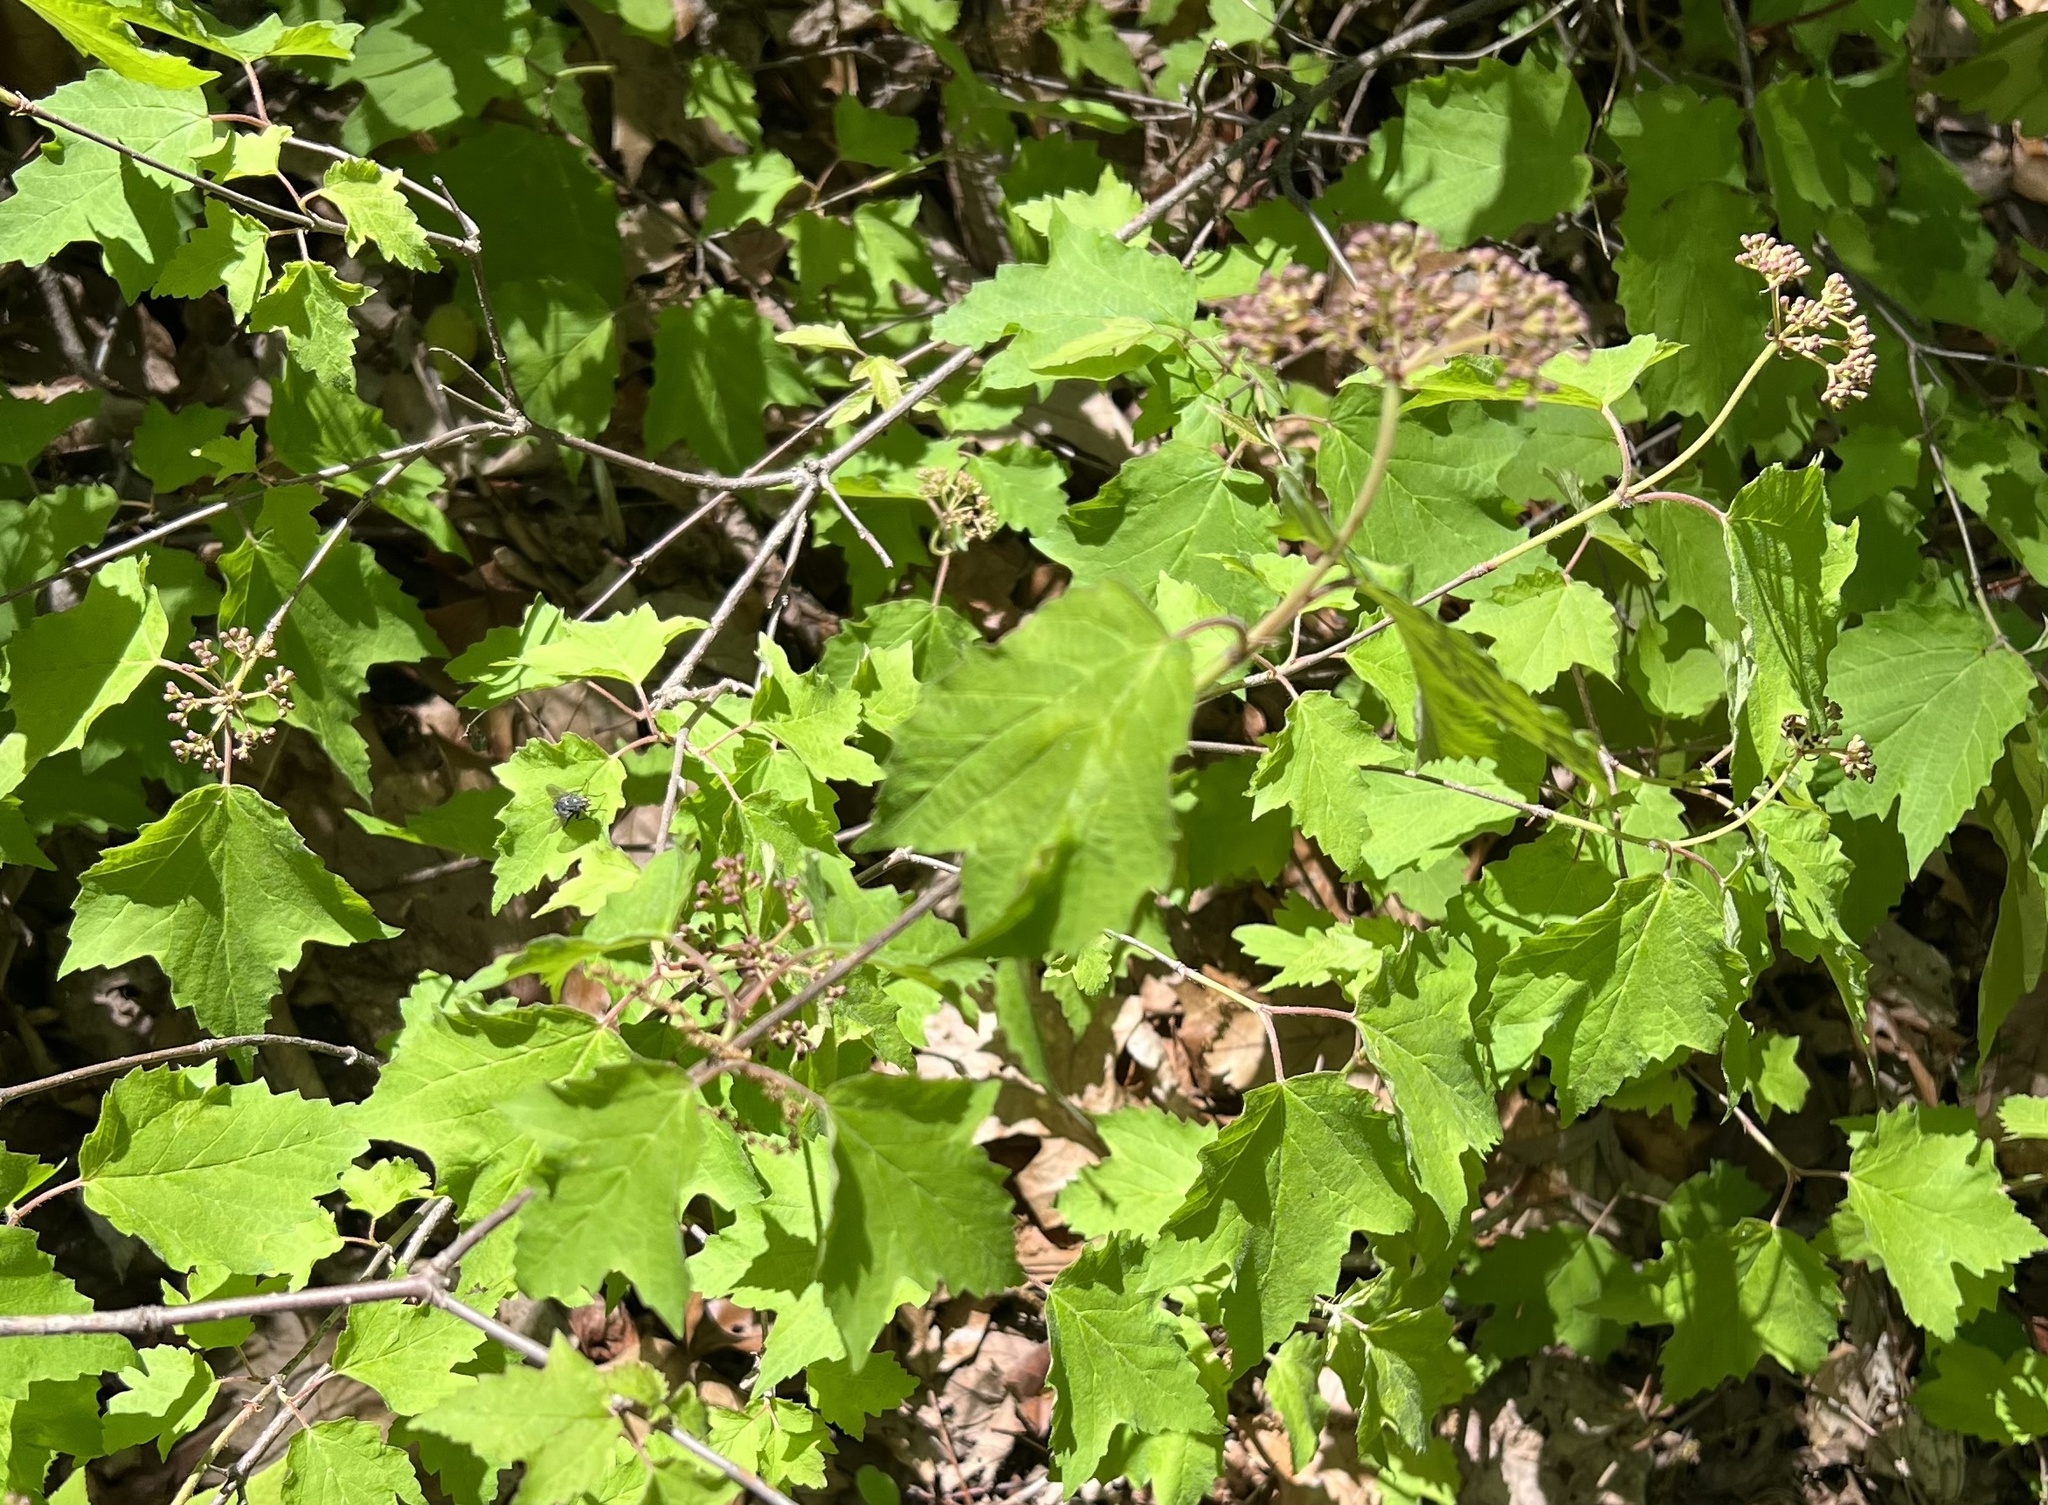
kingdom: Plantae
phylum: Tracheophyta
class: Magnoliopsida
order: Dipsacales
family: Viburnaceae
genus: Viburnum
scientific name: Viburnum acerifolium
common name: Dockmackie
